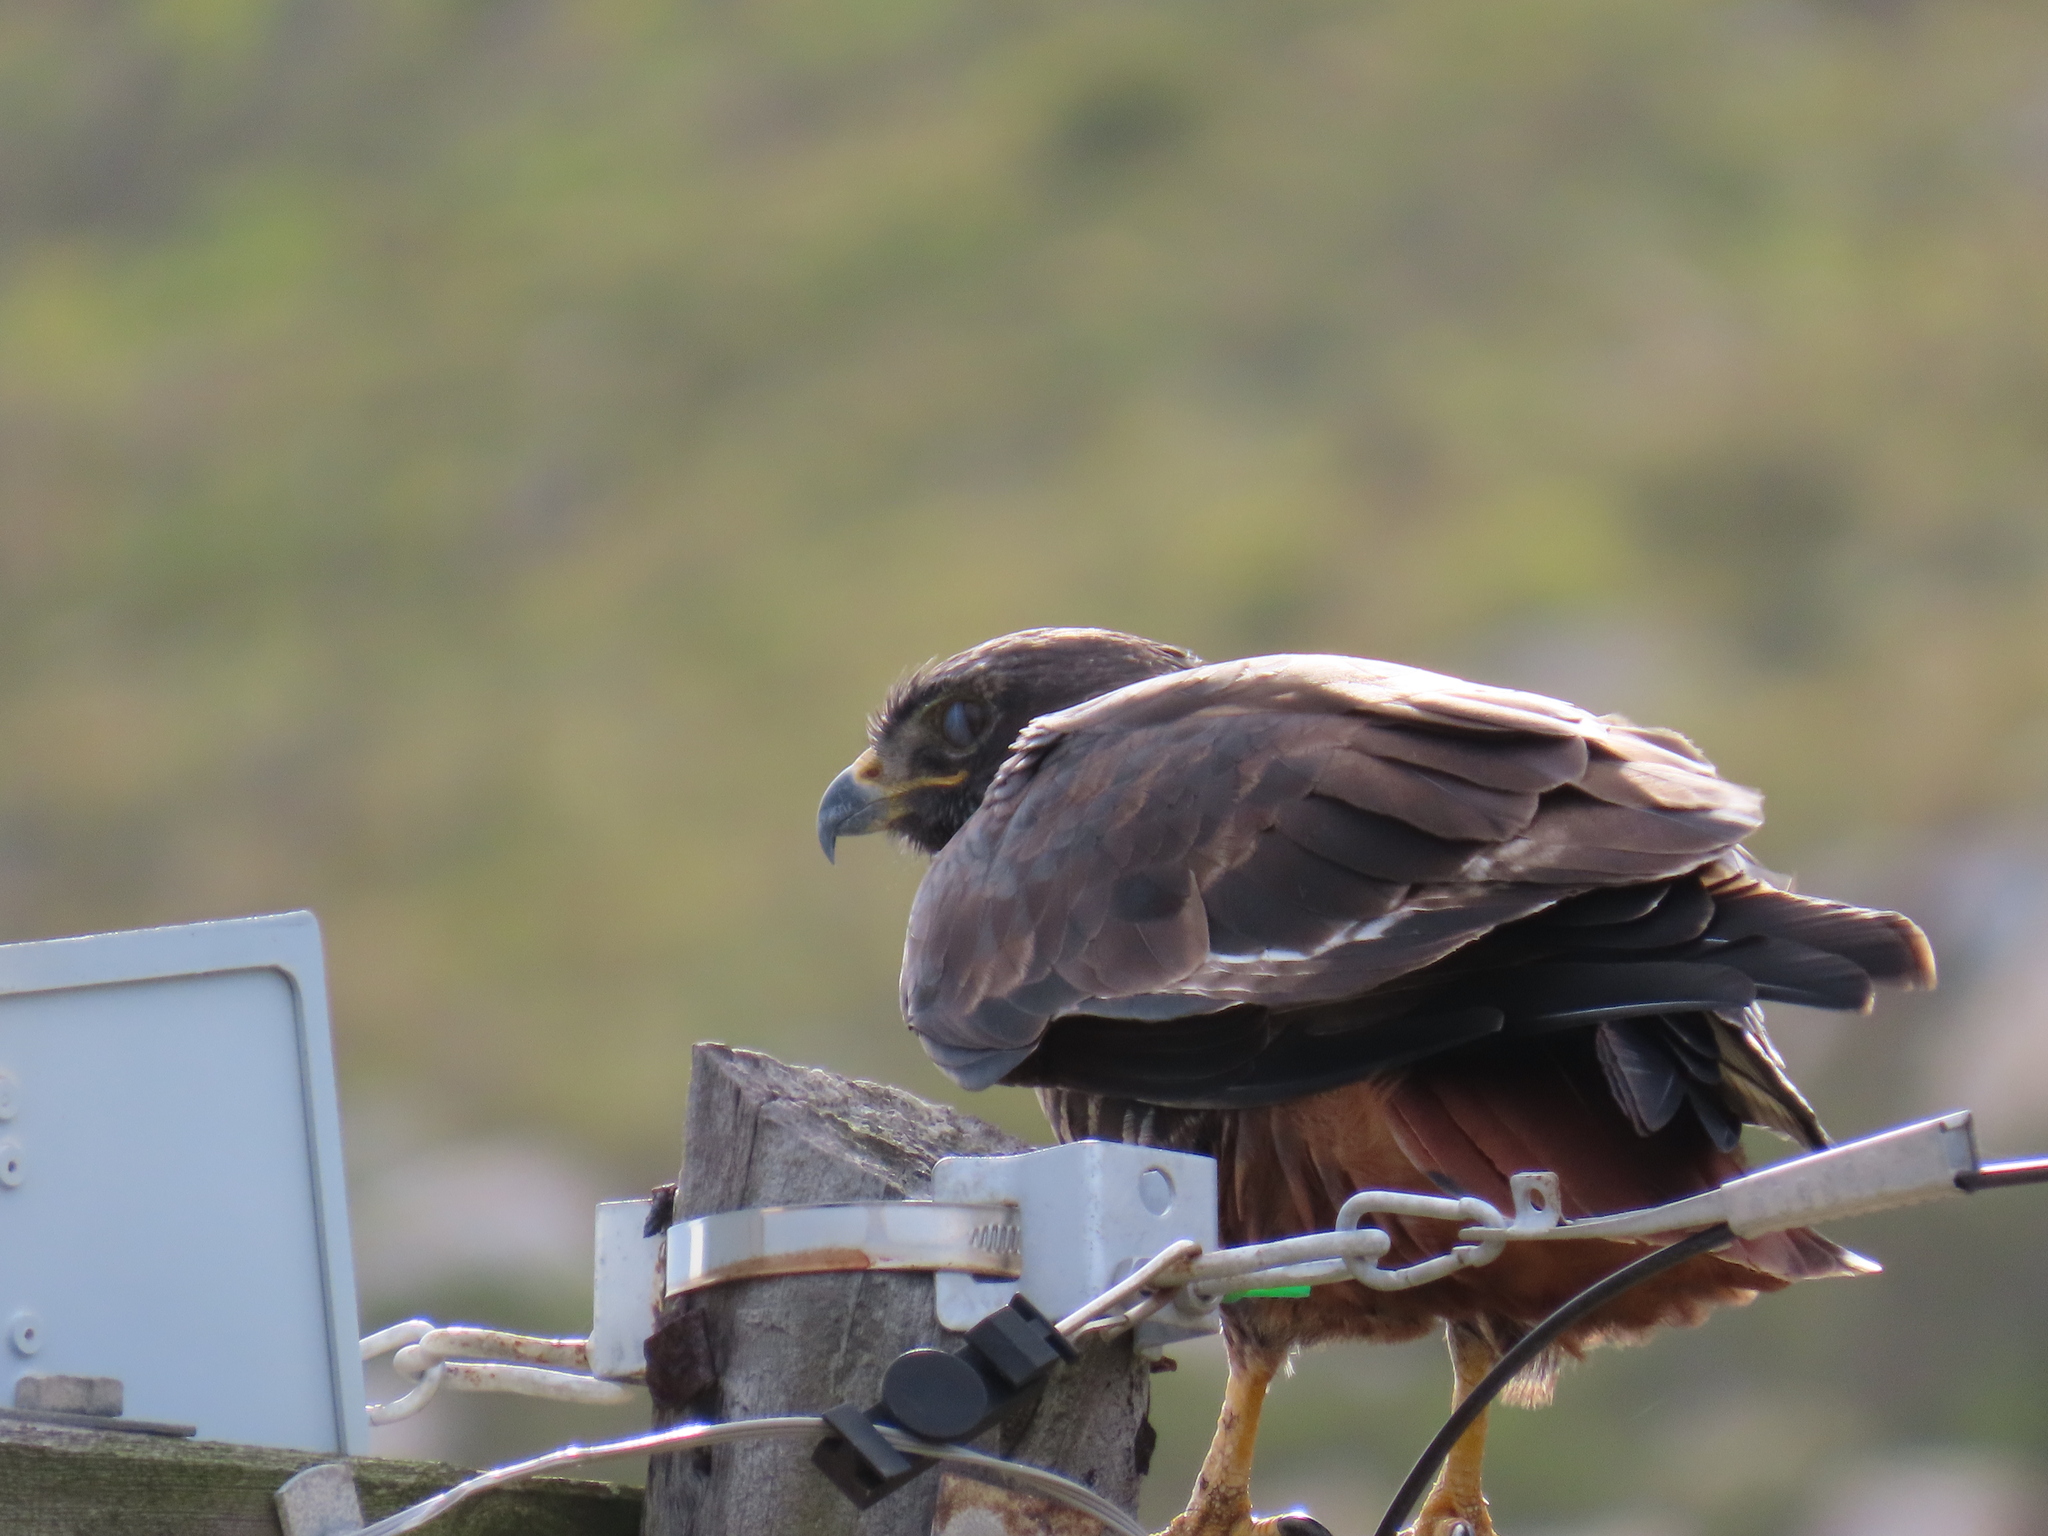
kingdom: Animalia
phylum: Chordata
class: Aves
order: Accipitriformes
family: Accipitridae
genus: Buteo
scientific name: Buteo rufofuscus
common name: Jackal buzzard
